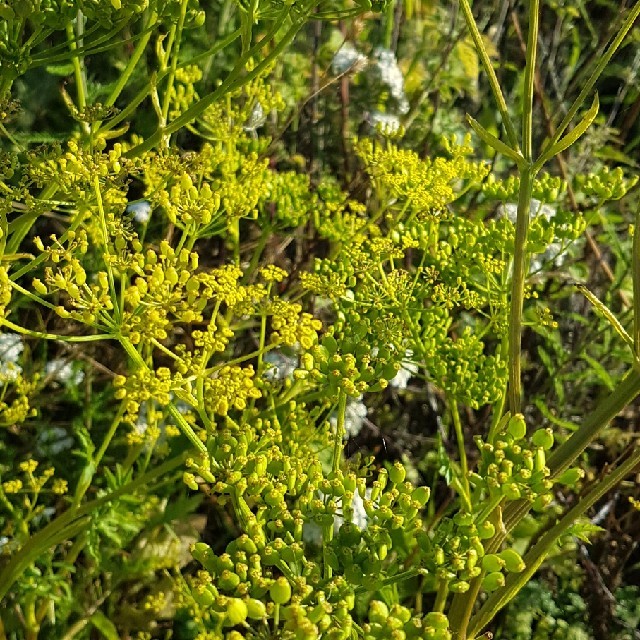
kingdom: Plantae
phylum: Tracheophyta
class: Magnoliopsida
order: Apiales
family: Apiaceae
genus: Pastinaca
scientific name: Pastinaca sativa
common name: Wild parsnip
